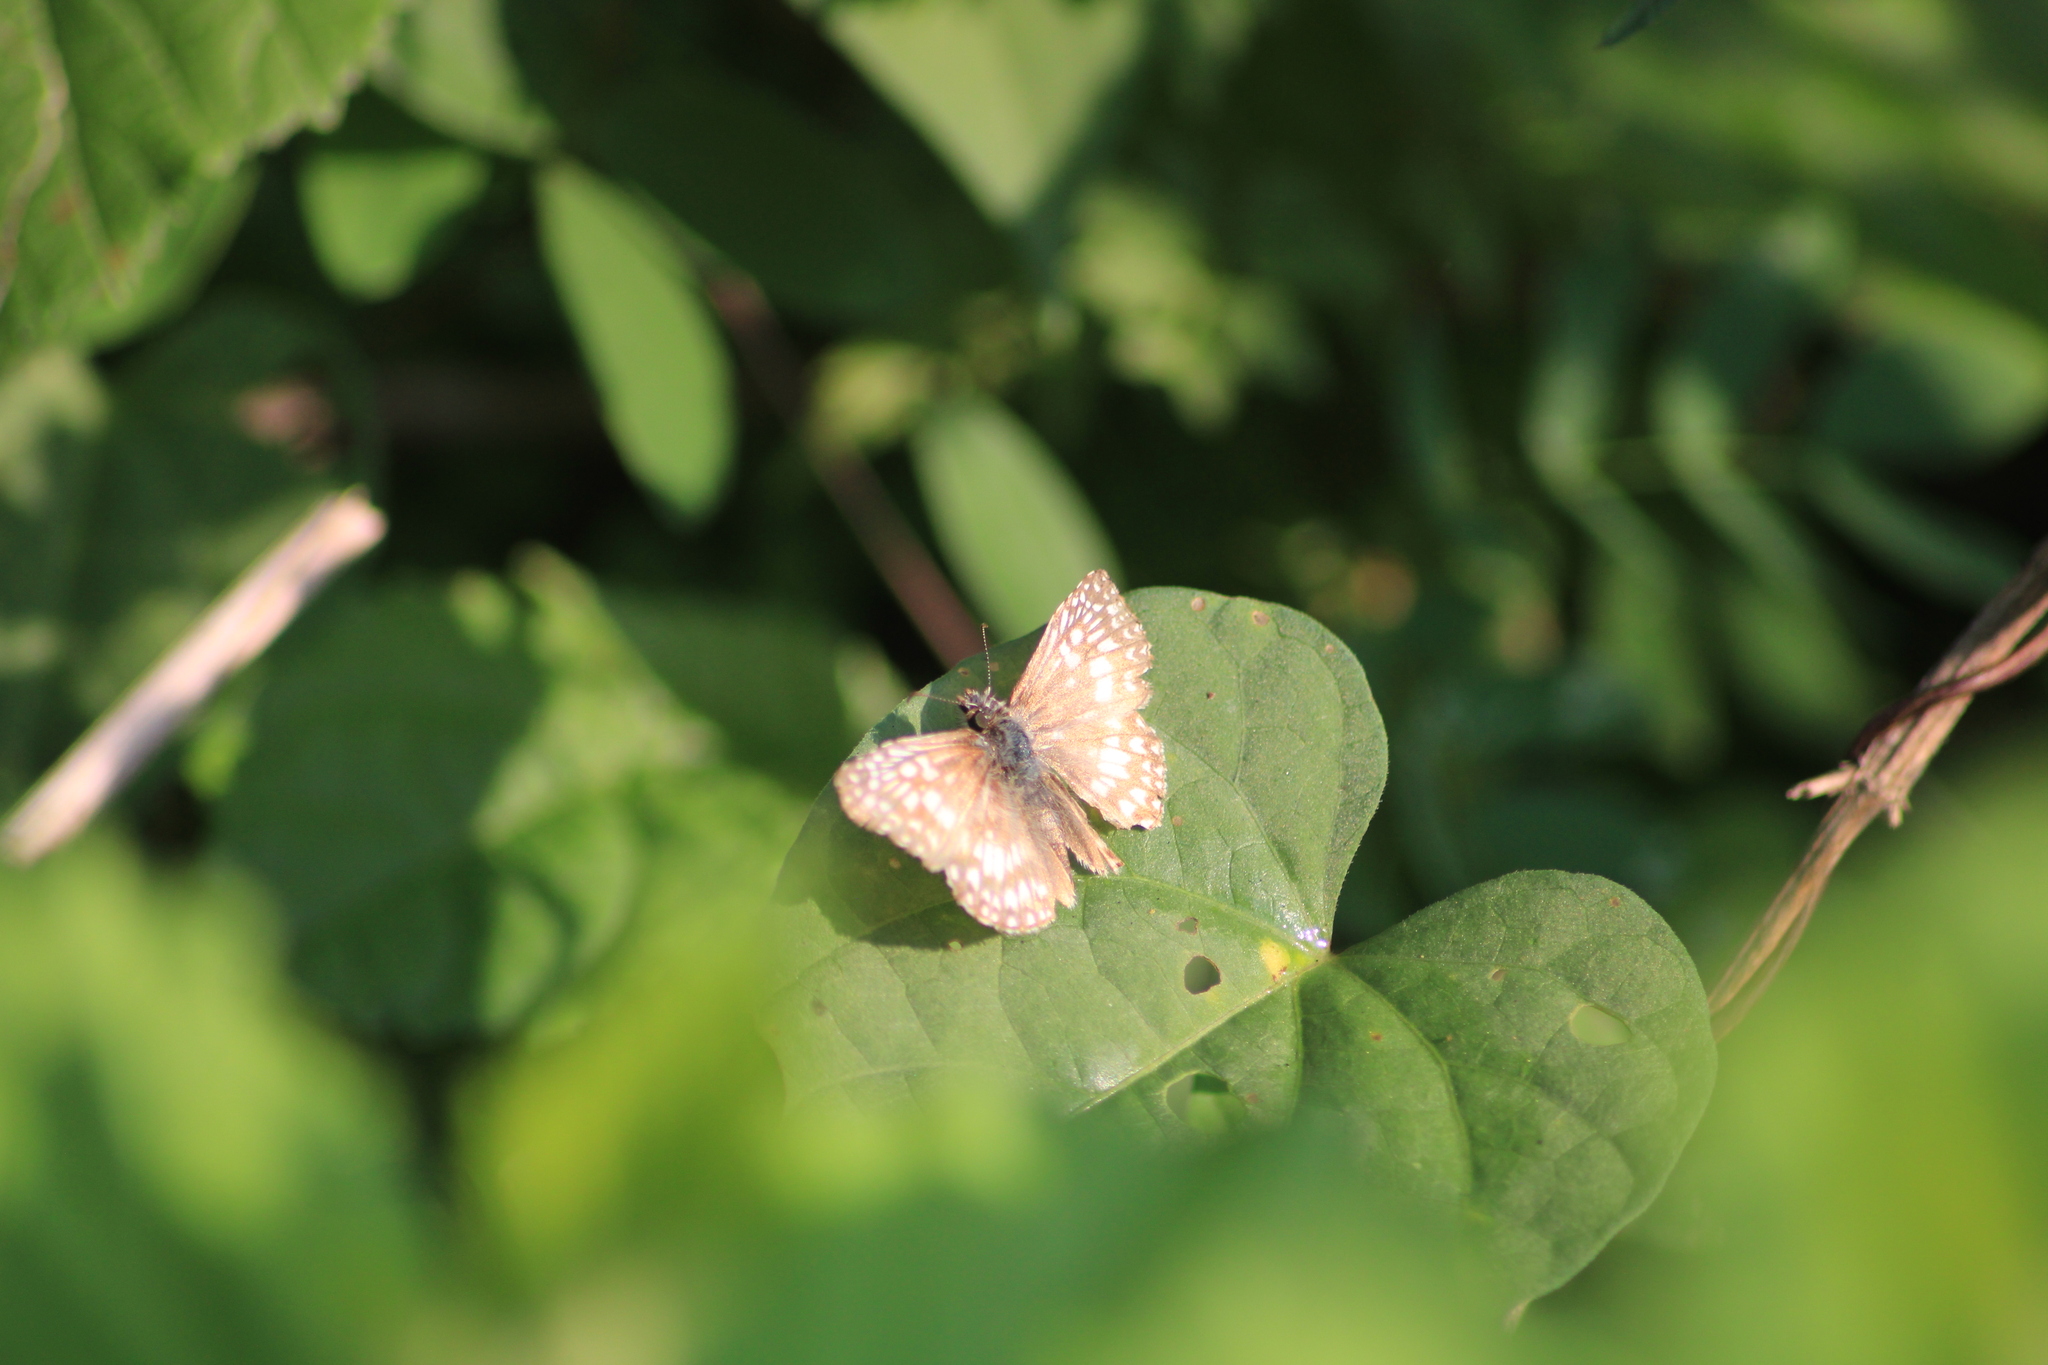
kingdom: Animalia
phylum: Arthropoda
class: Insecta
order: Lepidoptera
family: Hesperiidae
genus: Pyrgus
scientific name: Pyrgus oileus
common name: Tropical checkered-skipper
